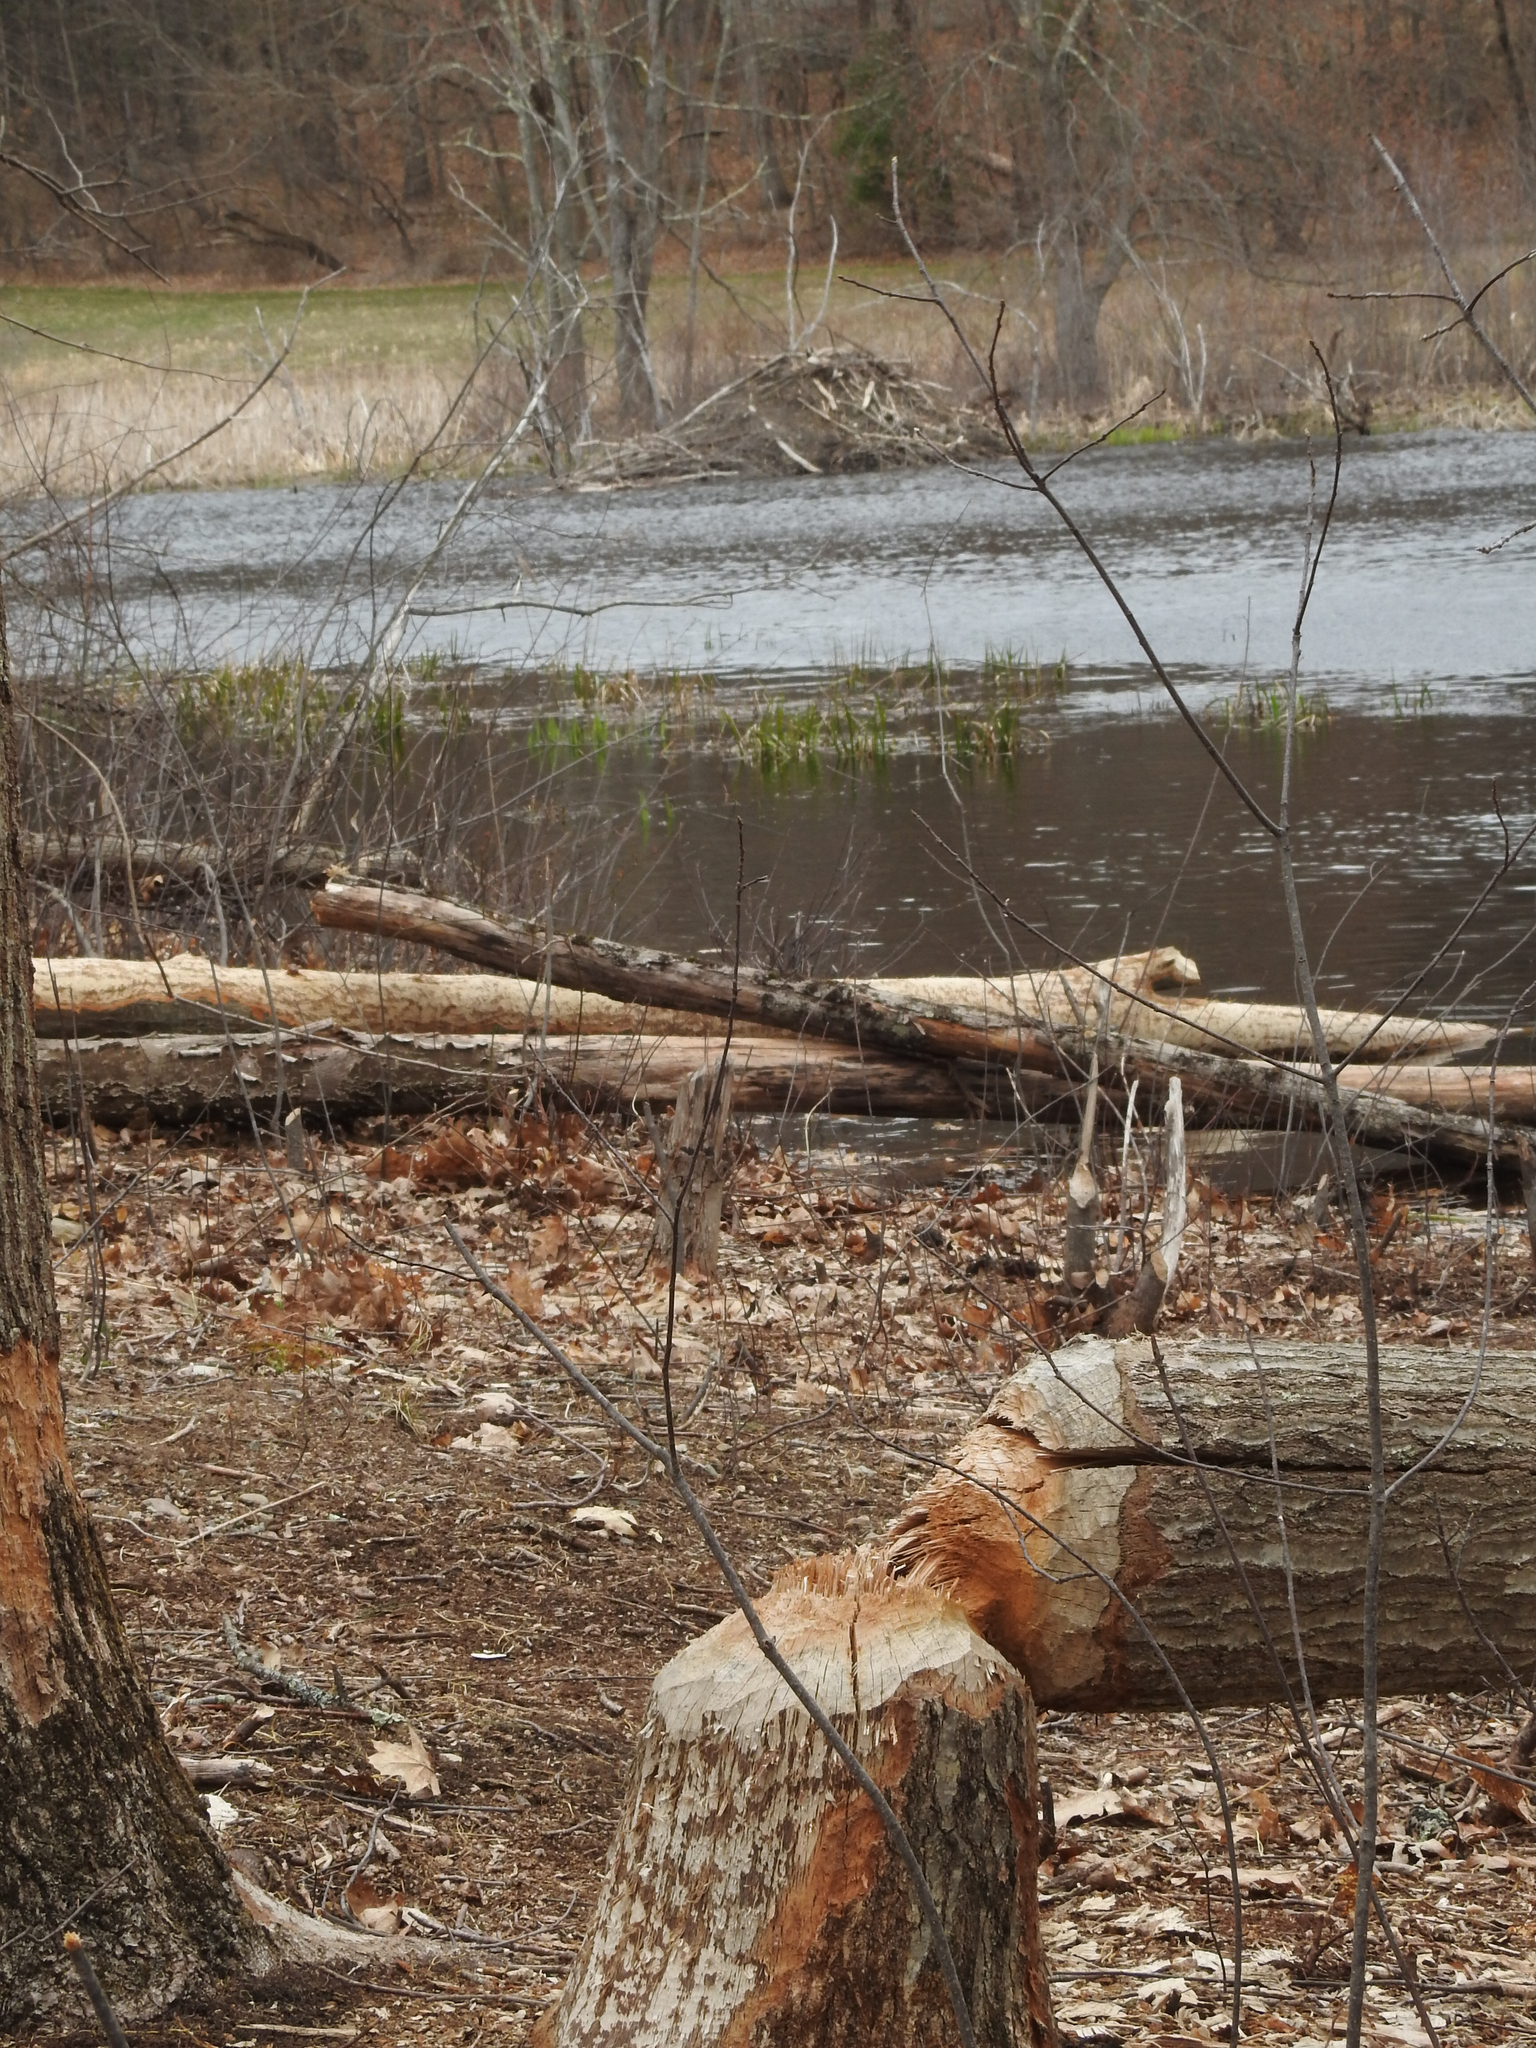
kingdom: Animalia
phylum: Chordata
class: Mammalia
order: Rodentia
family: Castoridae
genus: Castor
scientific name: Castor canadensis
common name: American beaver
